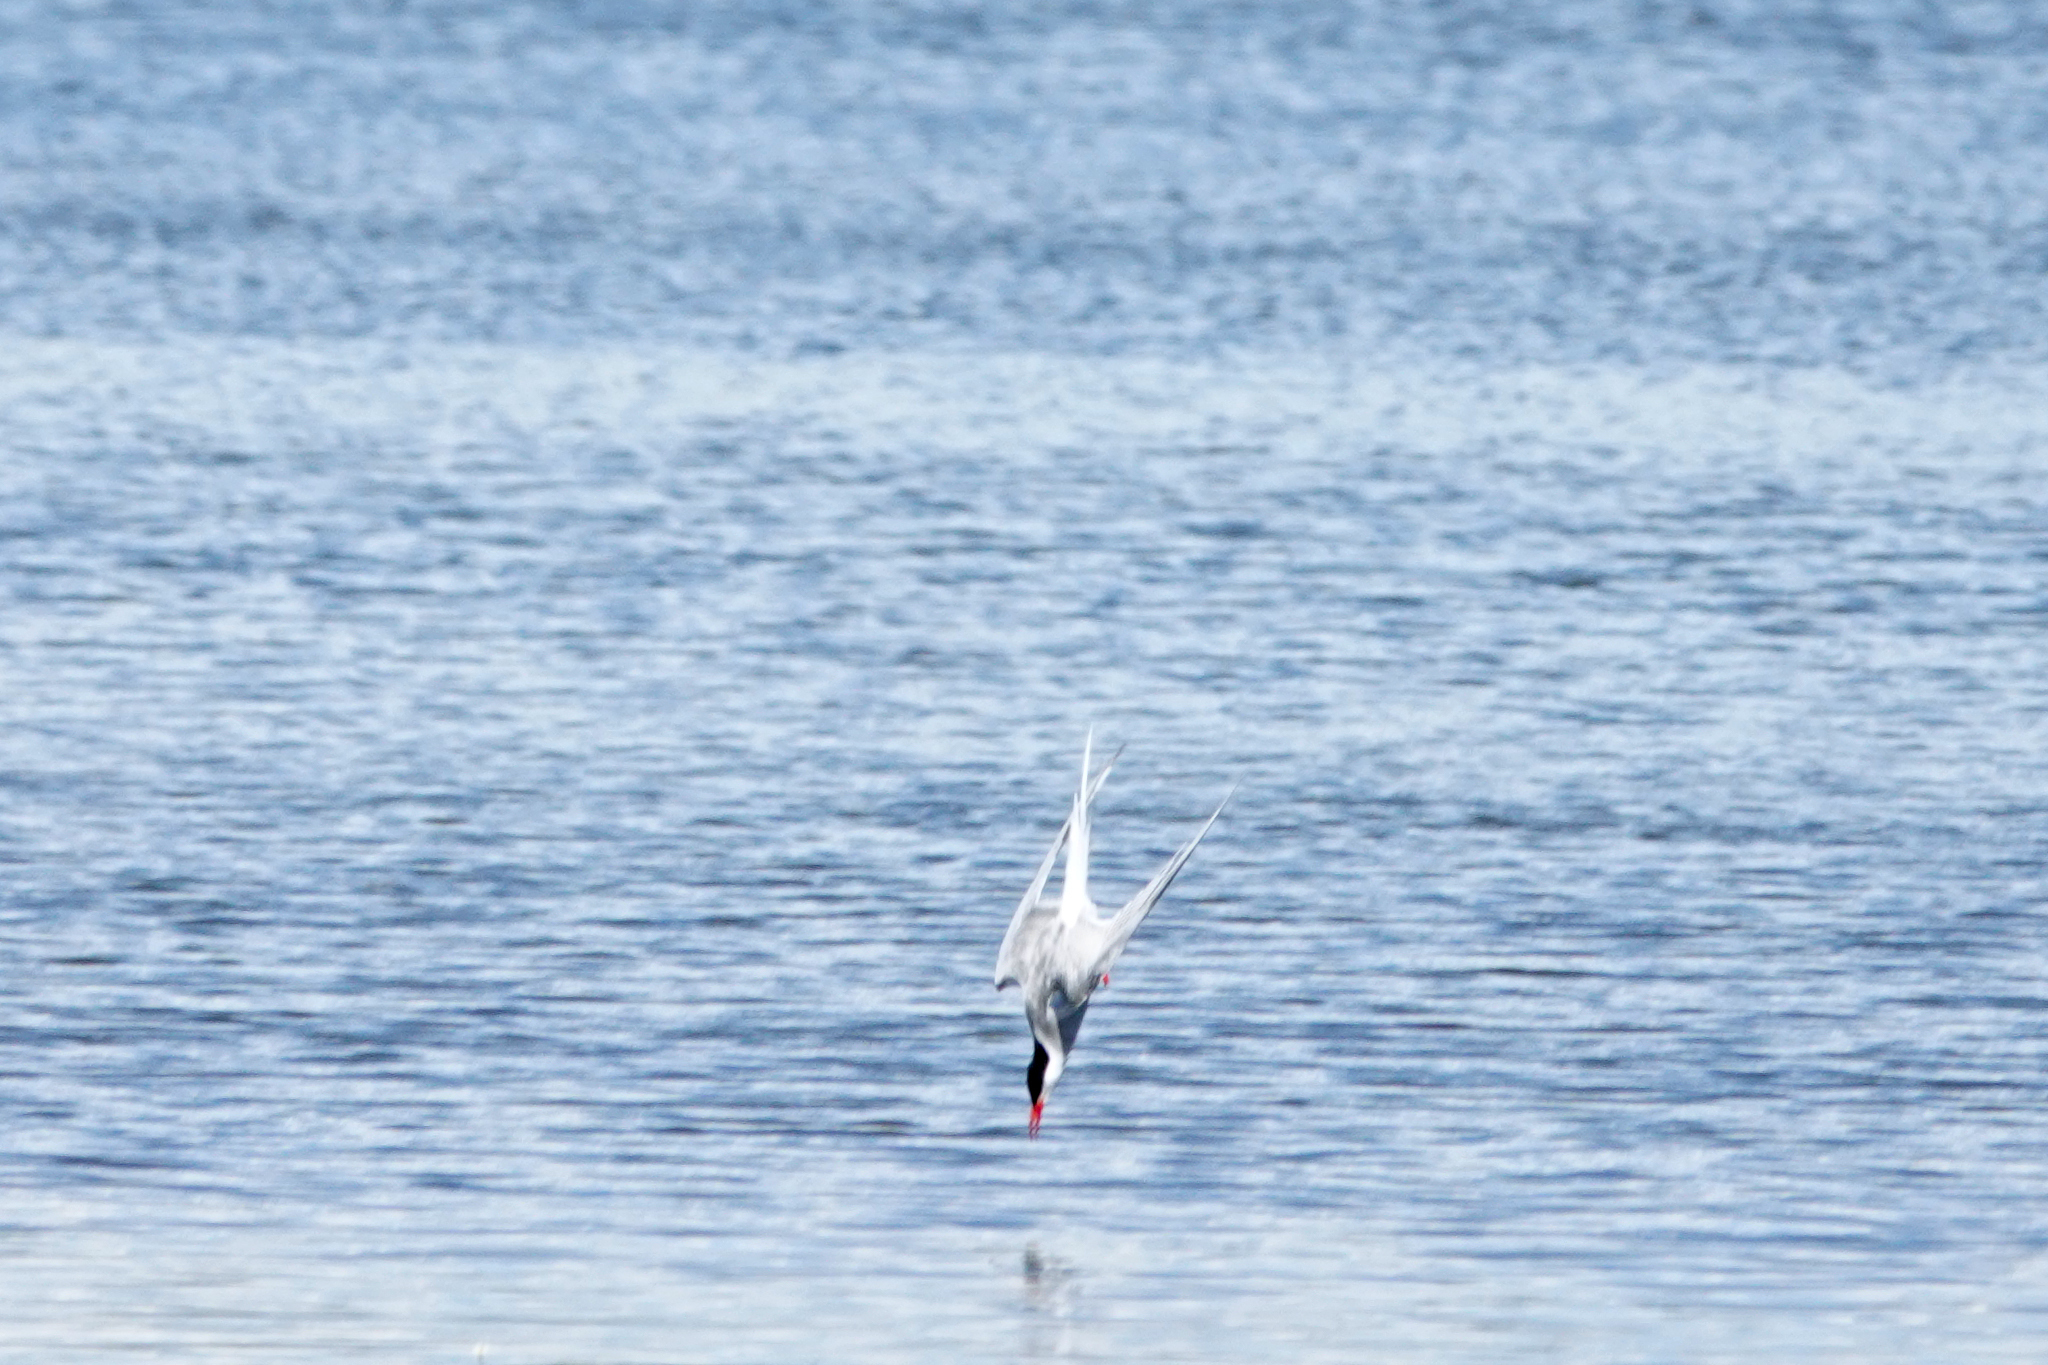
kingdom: Animalia
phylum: Chordata
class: Aves
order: Charadriiformes
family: Laridae
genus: Sterna
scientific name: Sterna paradisaea
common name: Arctic tern
